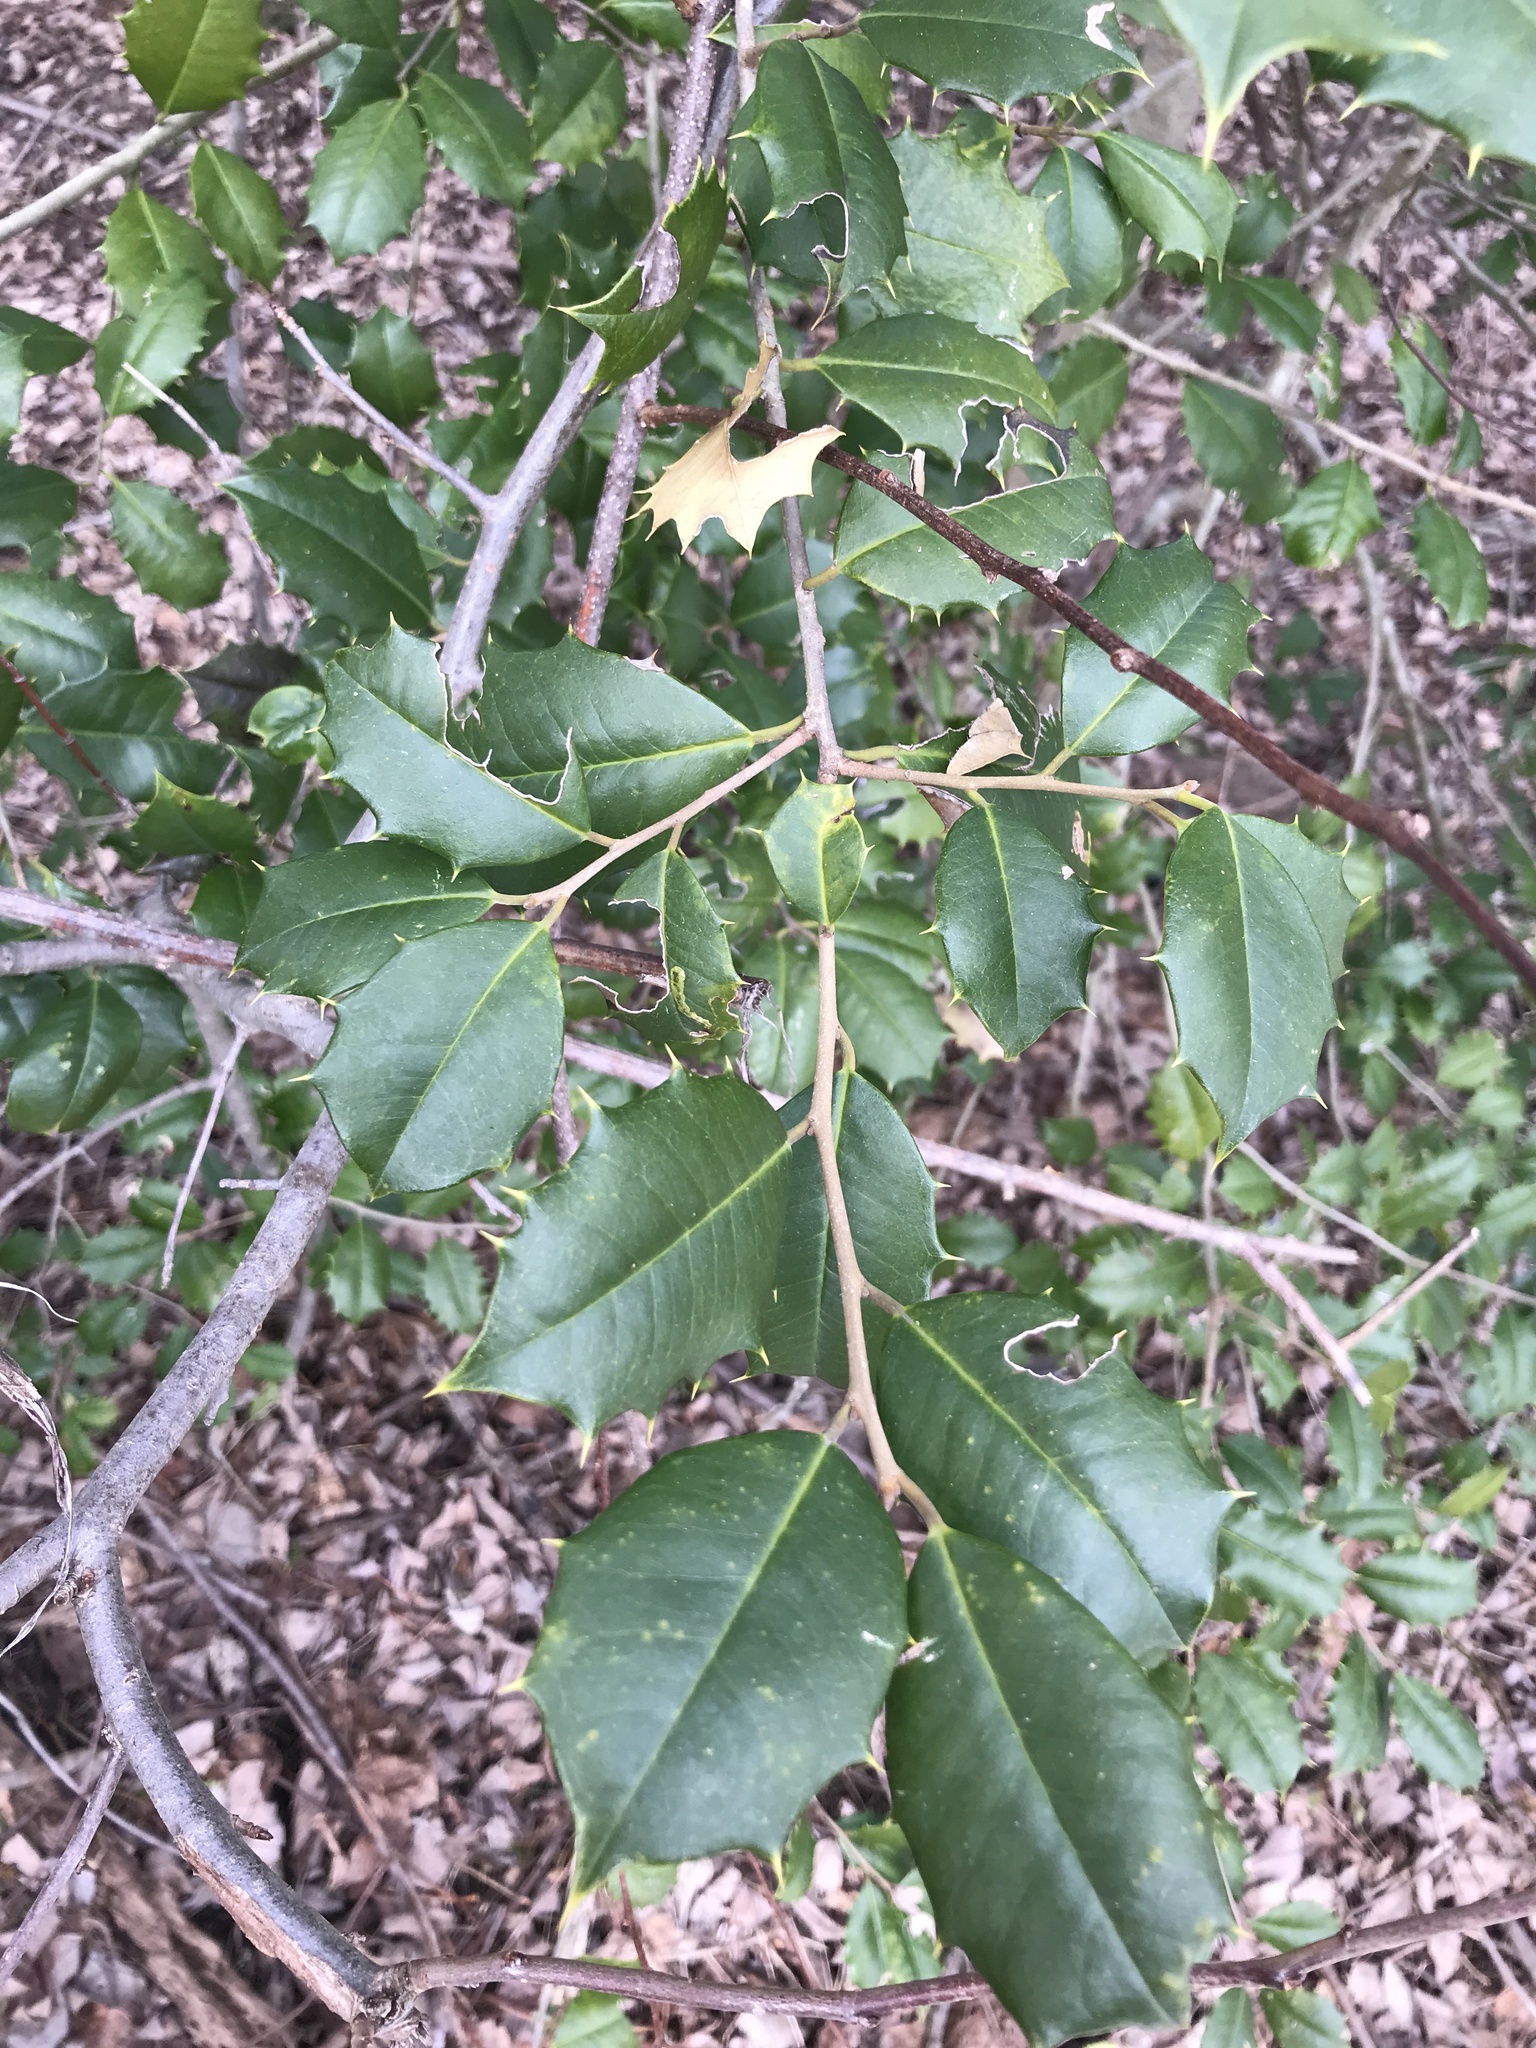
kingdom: Plantae
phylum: Tracheophyta
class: Magnoliopsida
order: Aquifoliales
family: Aquifoliaceae
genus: Ilex
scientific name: Ilex opaca
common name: American holly
